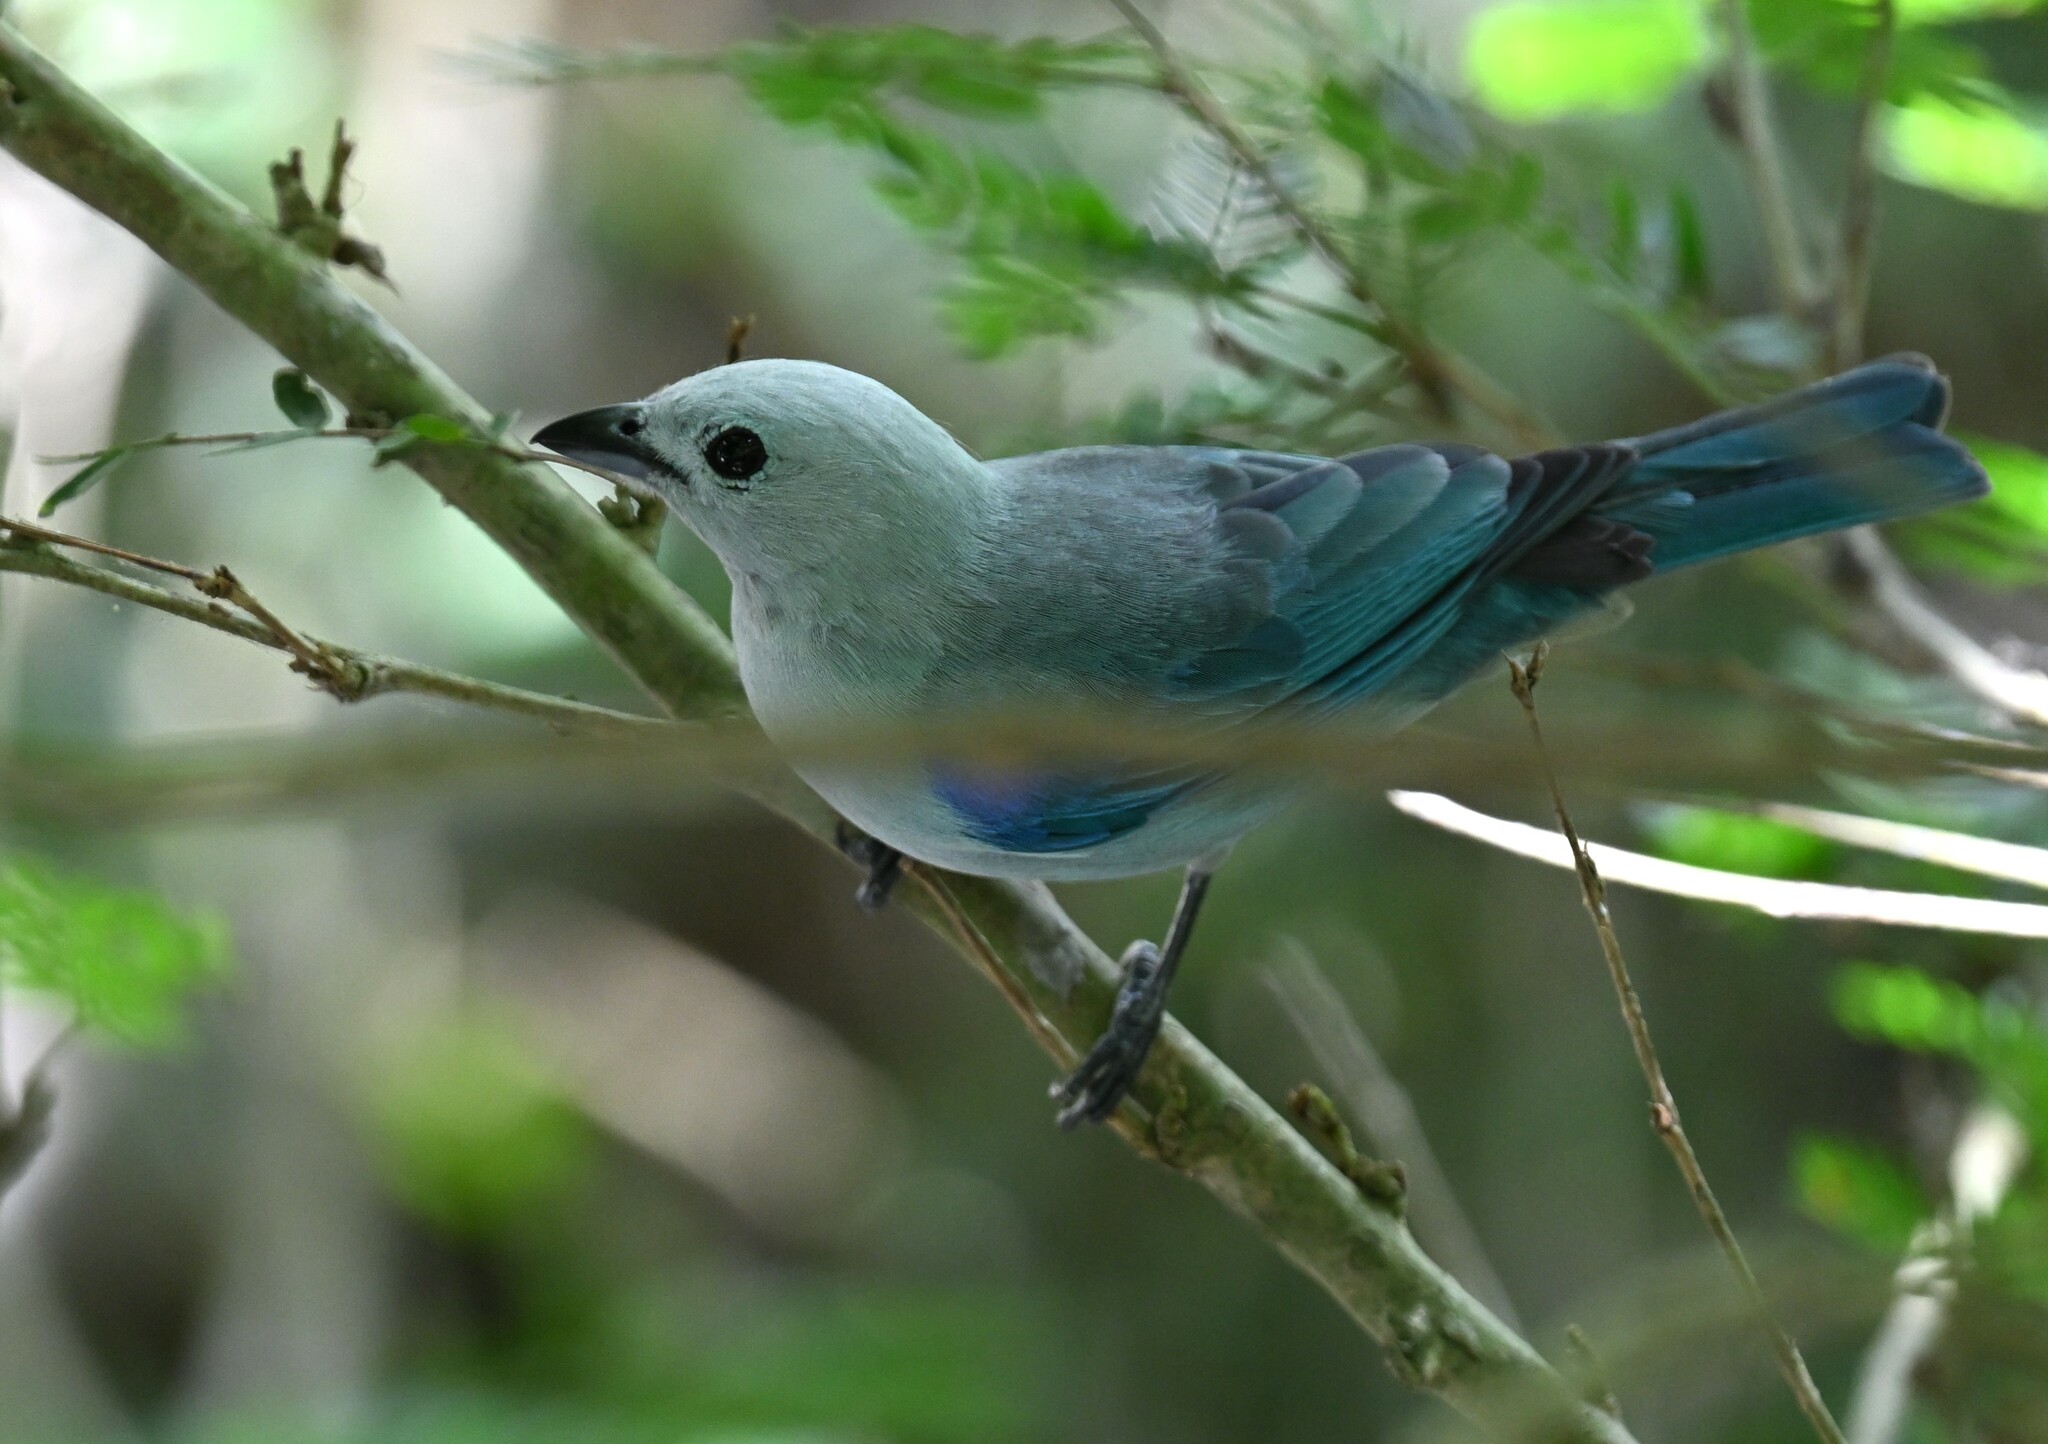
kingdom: Animalia
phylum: Chordata
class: Aves
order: Passeriformes
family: Thraupidae
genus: Thraupis
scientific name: Thraupis episcopus
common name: Blue-grey tanager
